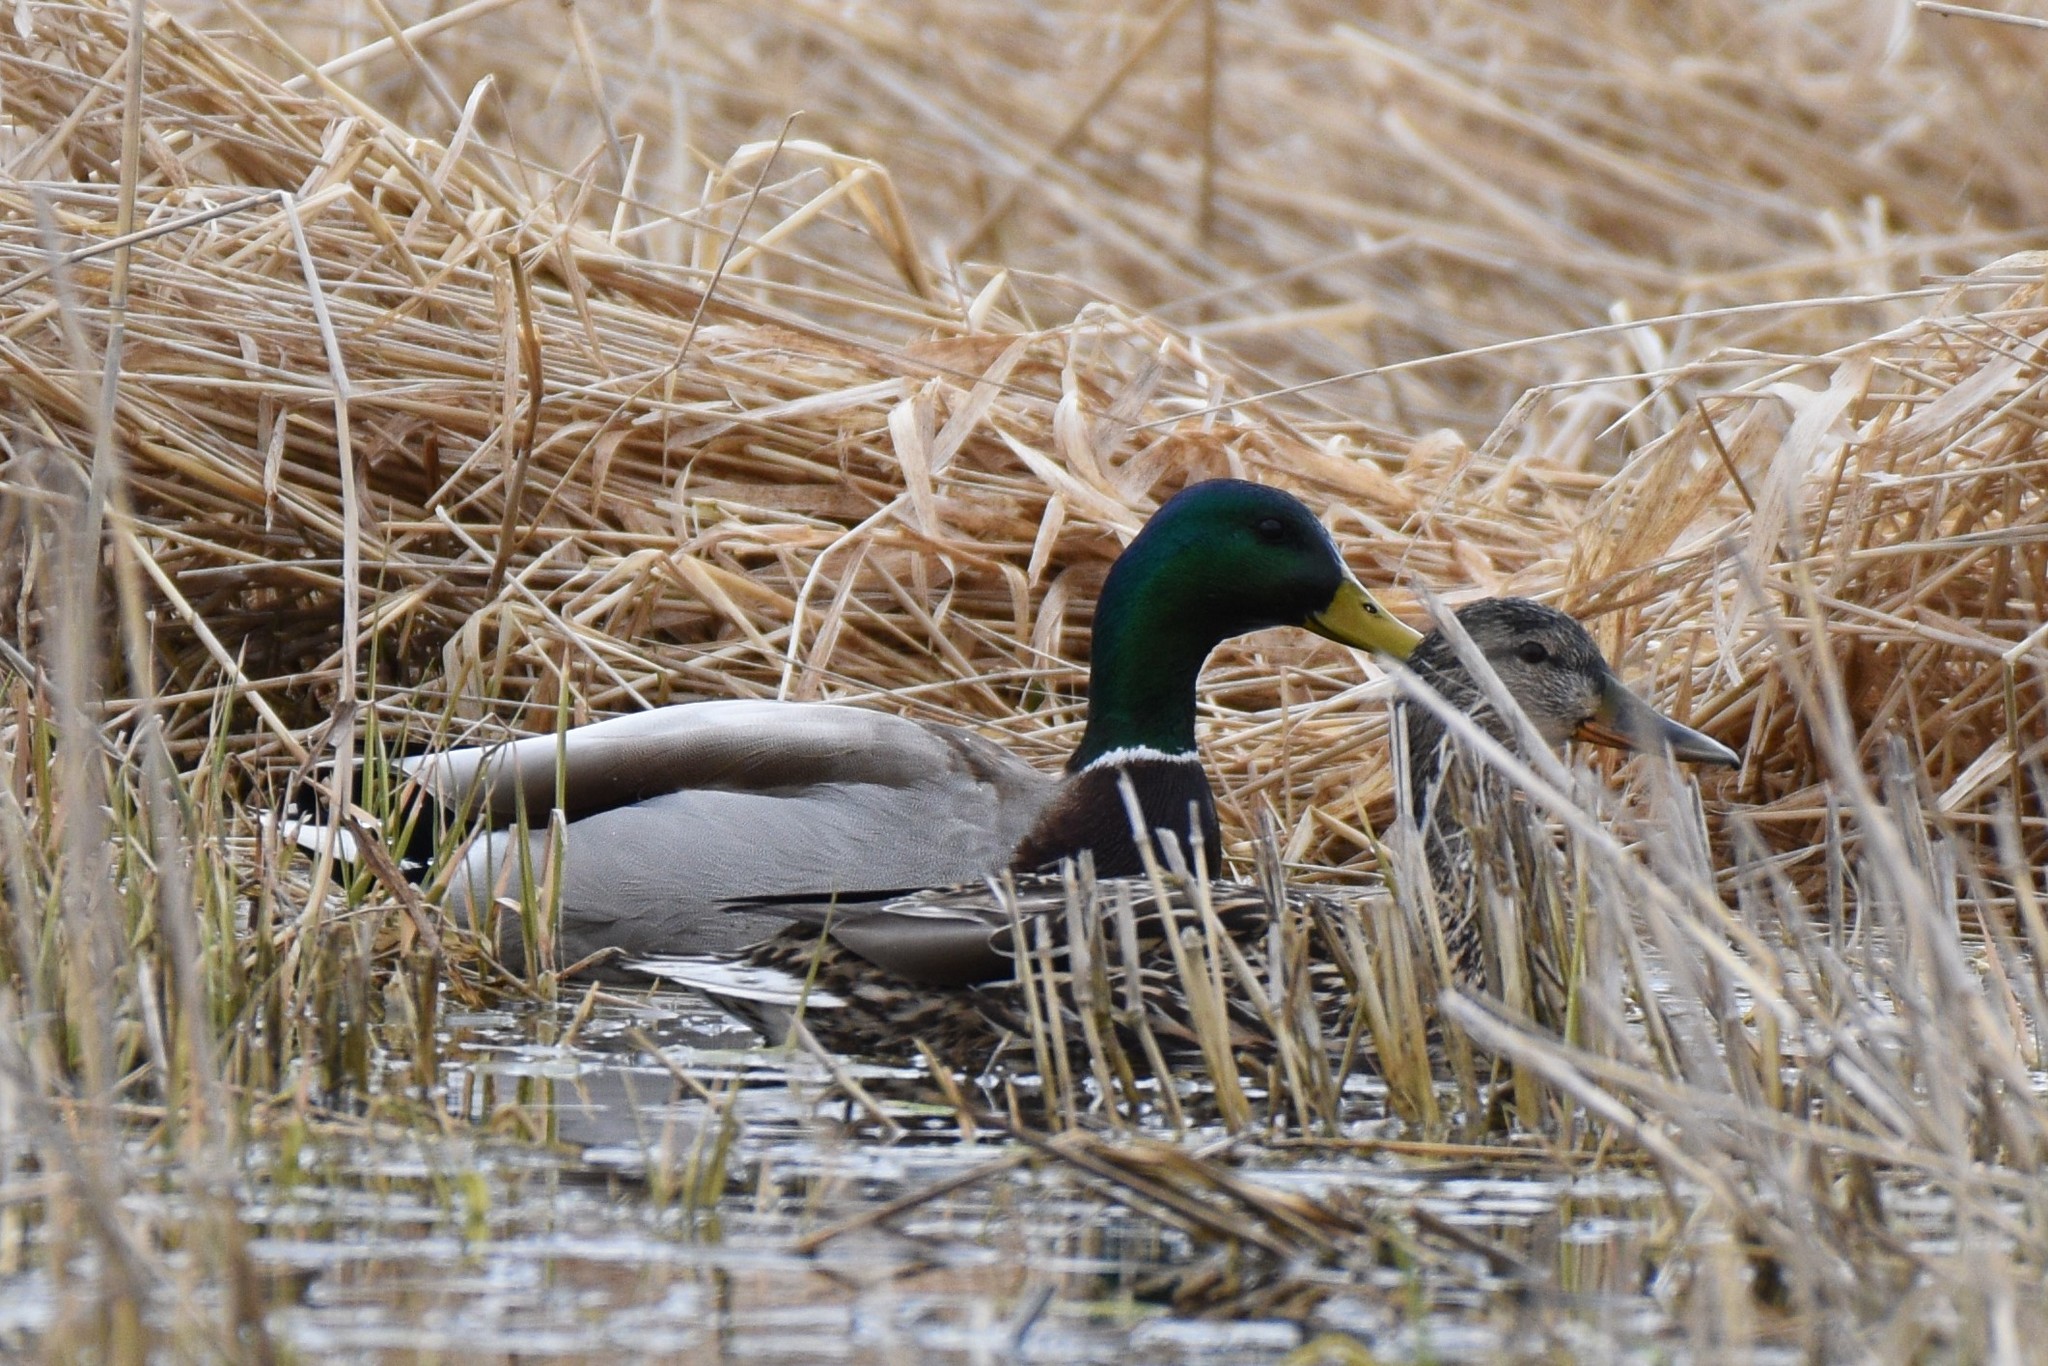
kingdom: Animalia
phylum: Chordata
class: Aves
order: Anseriformes
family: Anatidae
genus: Anas
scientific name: Anas platyrhynchos
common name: Mallard
